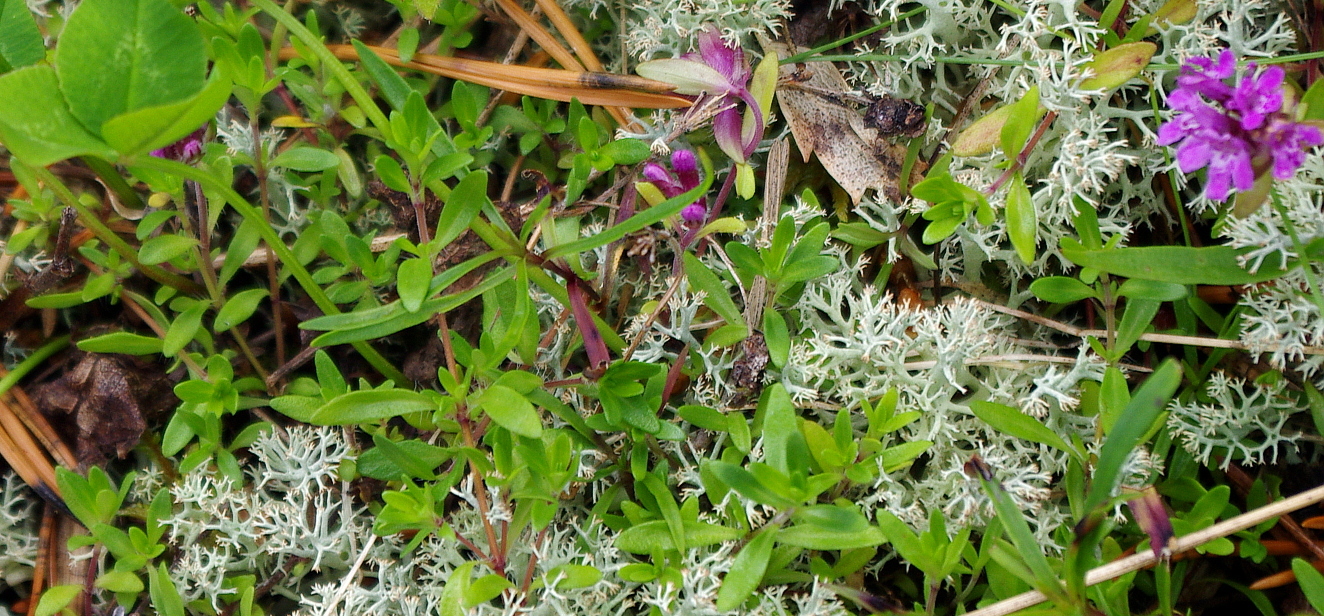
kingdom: Plantae
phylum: Tracheophyta
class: Magnoliopsida
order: Lamiales
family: Lamiaceae
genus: Thymus
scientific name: Thymus serpyllum
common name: Breckland thyme
